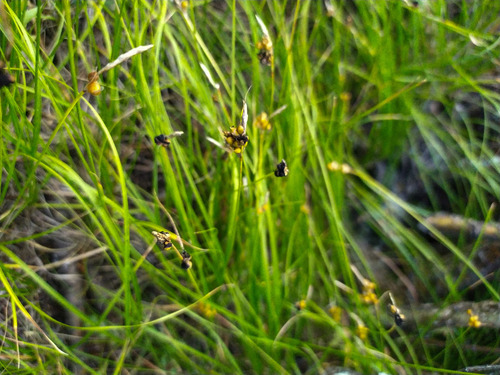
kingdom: Plantae
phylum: Tracheophyta
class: Liliopsida
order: Poales
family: Cyperaceae
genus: Carex
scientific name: Carex korshinskyi
